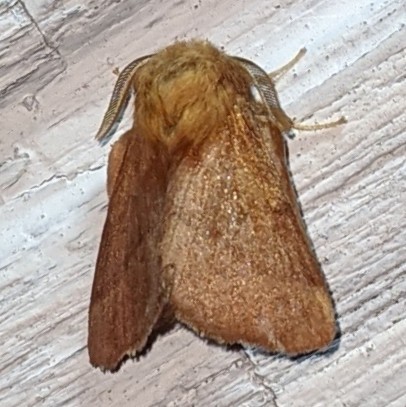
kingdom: Animalia
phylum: Arthropoda
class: Insecta
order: Lepidoptera
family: Lasiocampidae
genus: Malacosoma
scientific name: Malacosoma disstria
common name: Forest tent caterpillar
